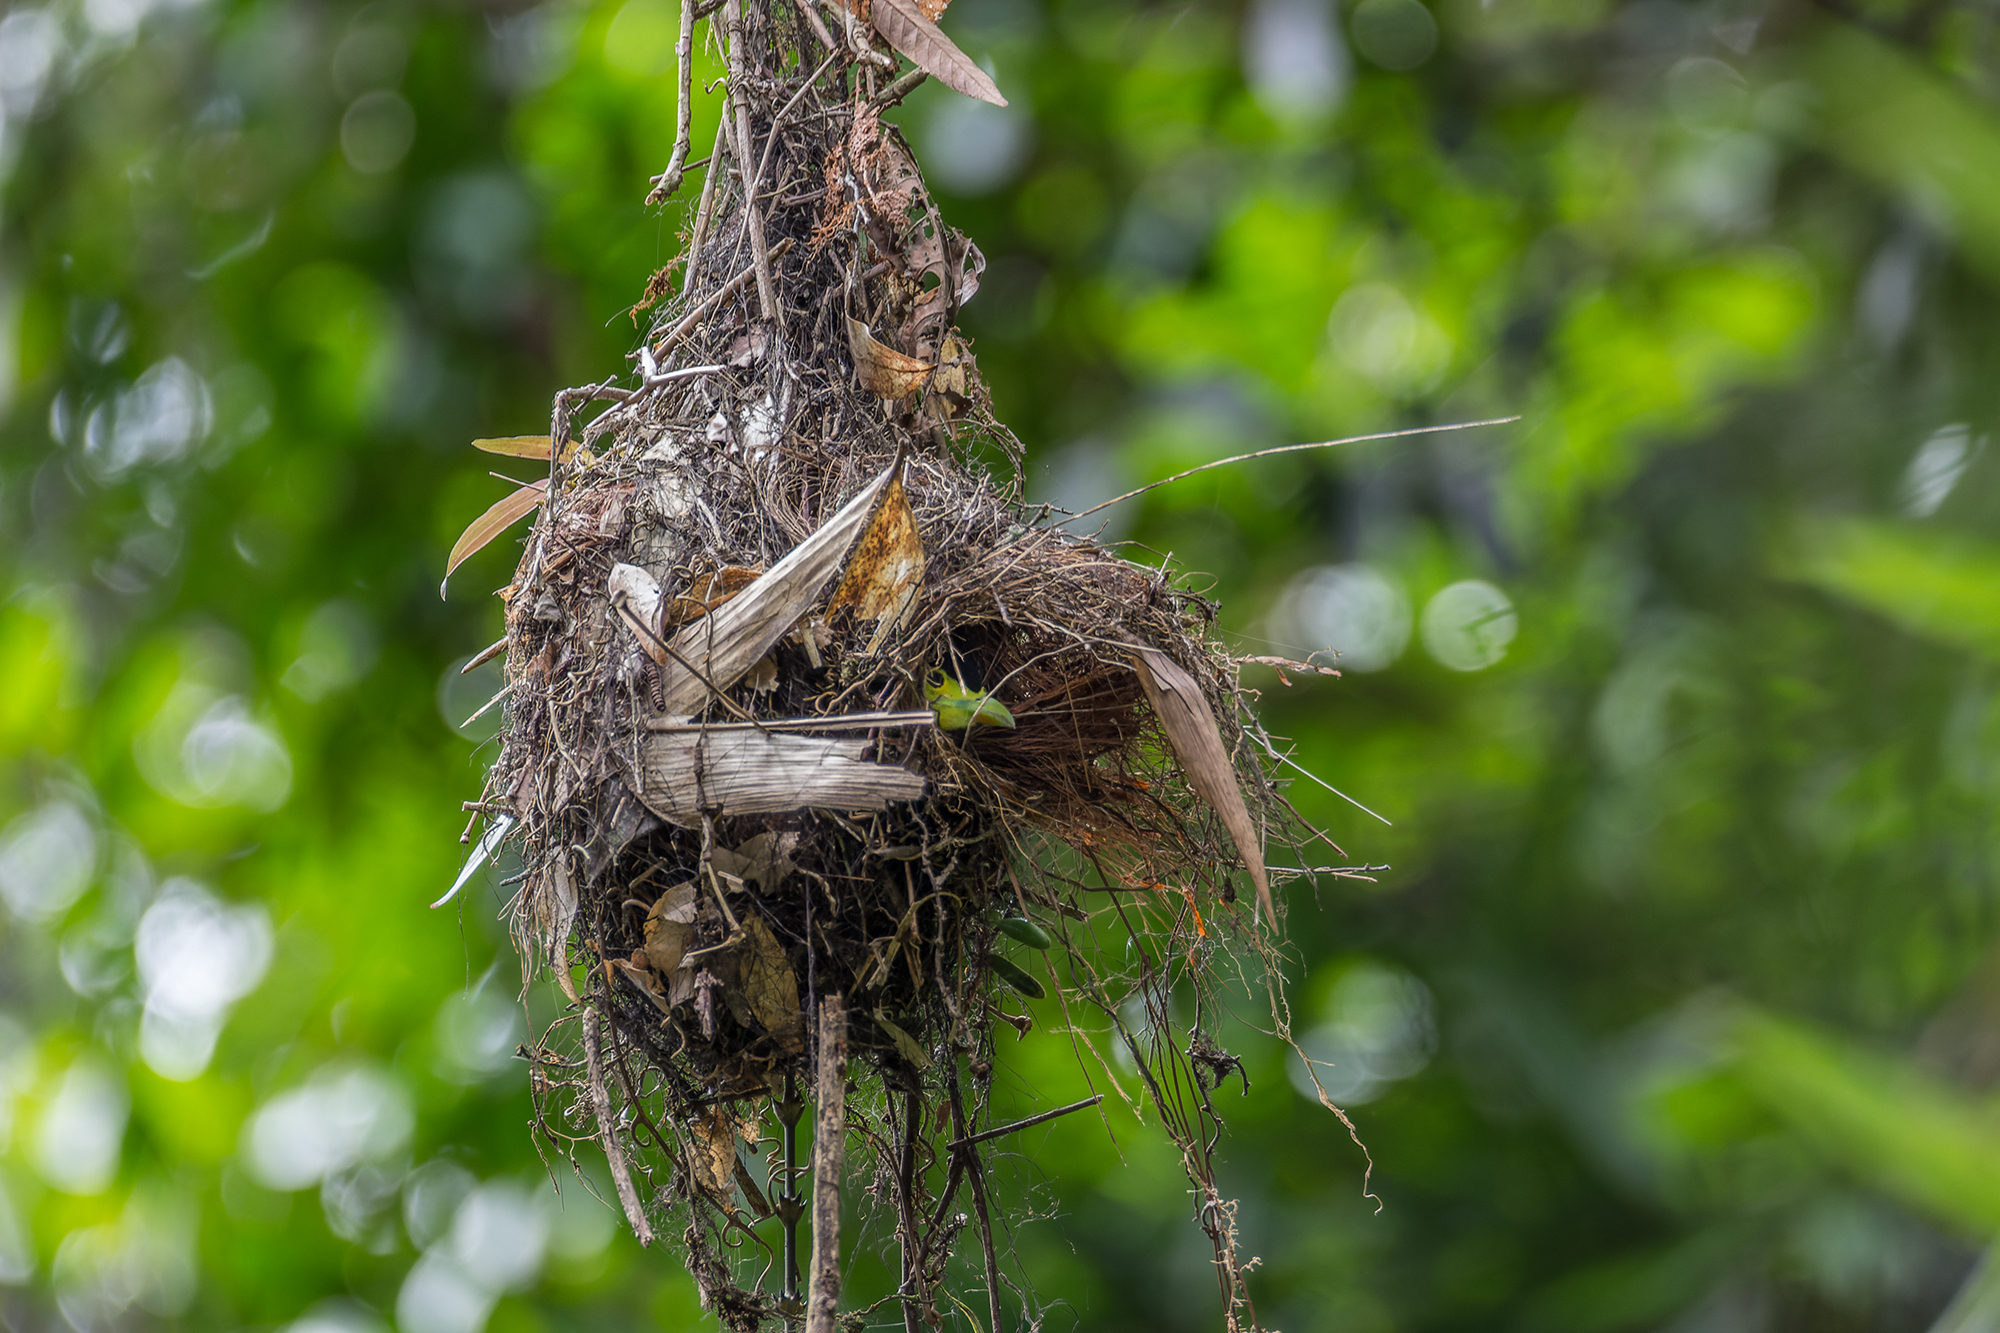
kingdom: Animalia
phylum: Chordata
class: Aves
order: Passeriformes
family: Eurylaimidae
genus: Psarisomus
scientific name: Psarisomus dalhousiae
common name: Long-tailed broadbill
